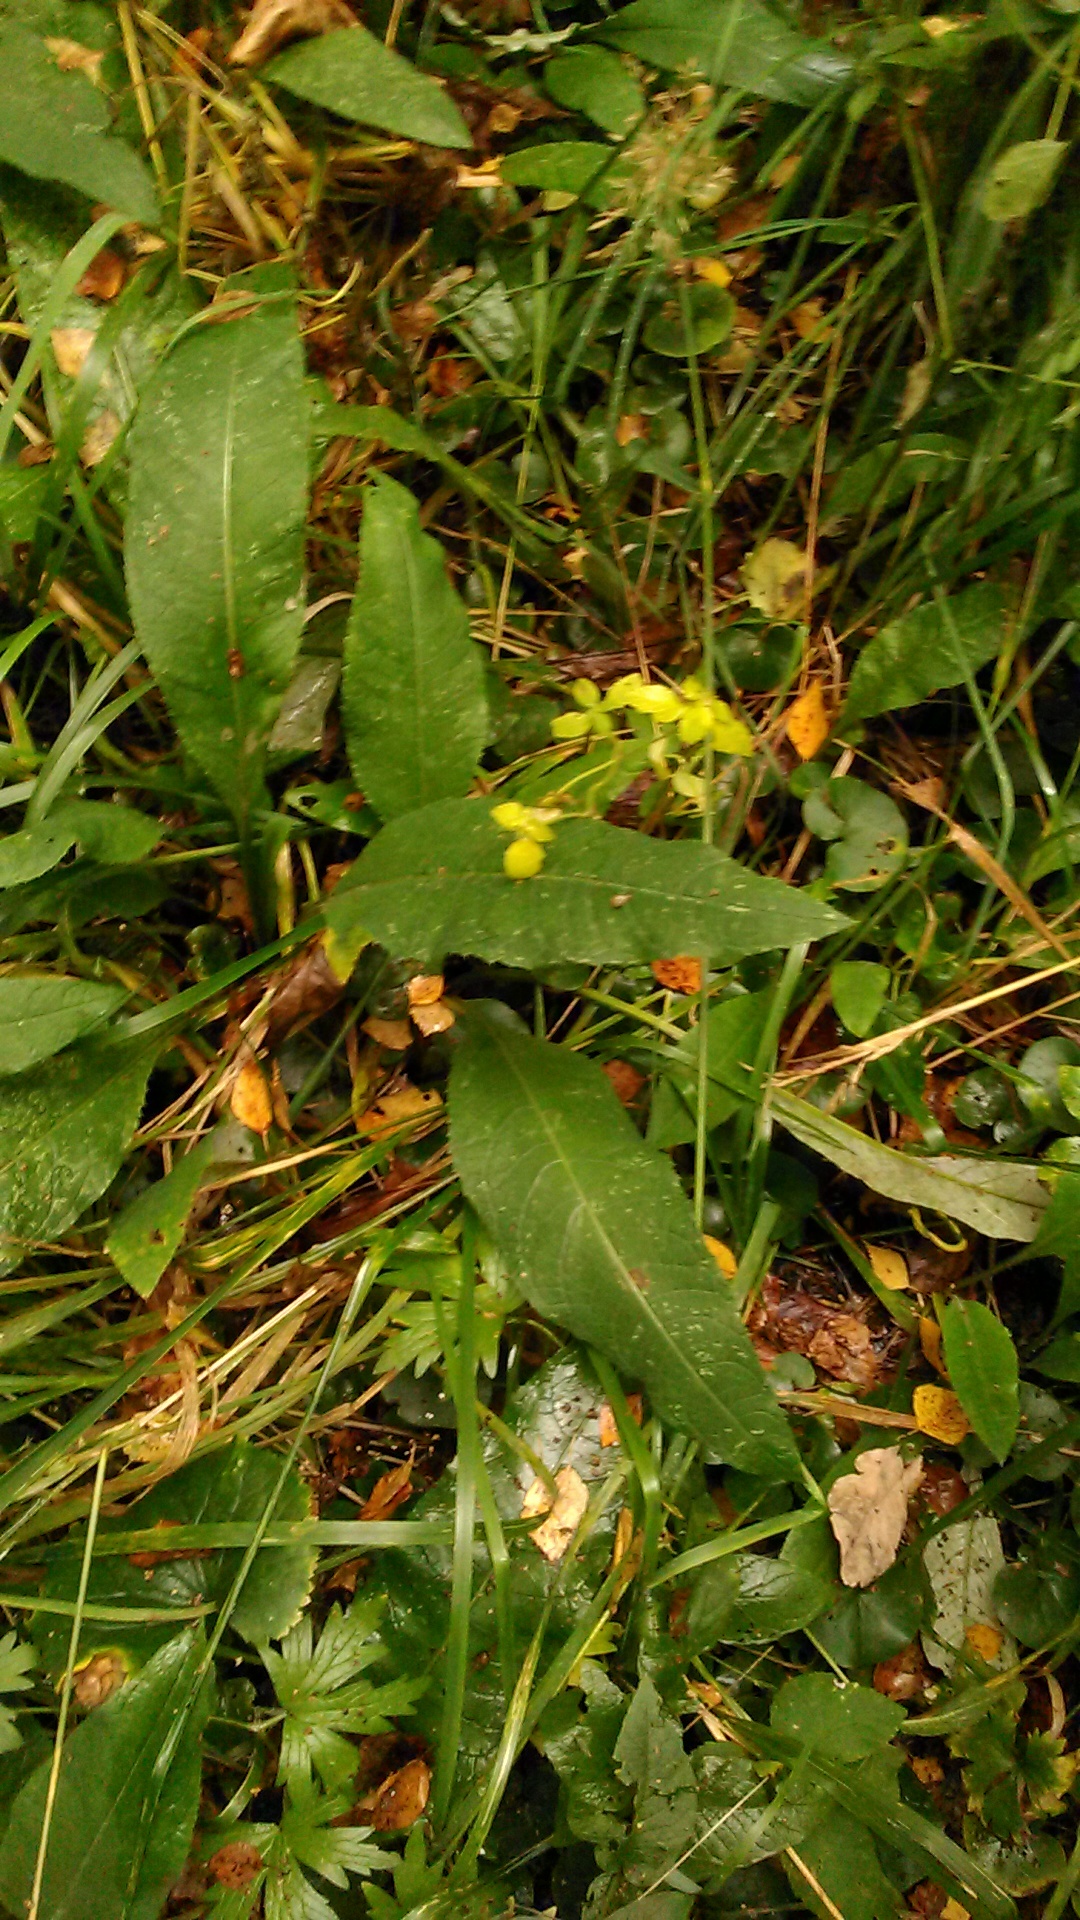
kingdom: Plantae
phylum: Tracheophyta
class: Magnoliopsida
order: Asterales
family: Asteraceae
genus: Cirsium
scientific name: Cirsium heterophyllum
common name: Melancholy thistle
